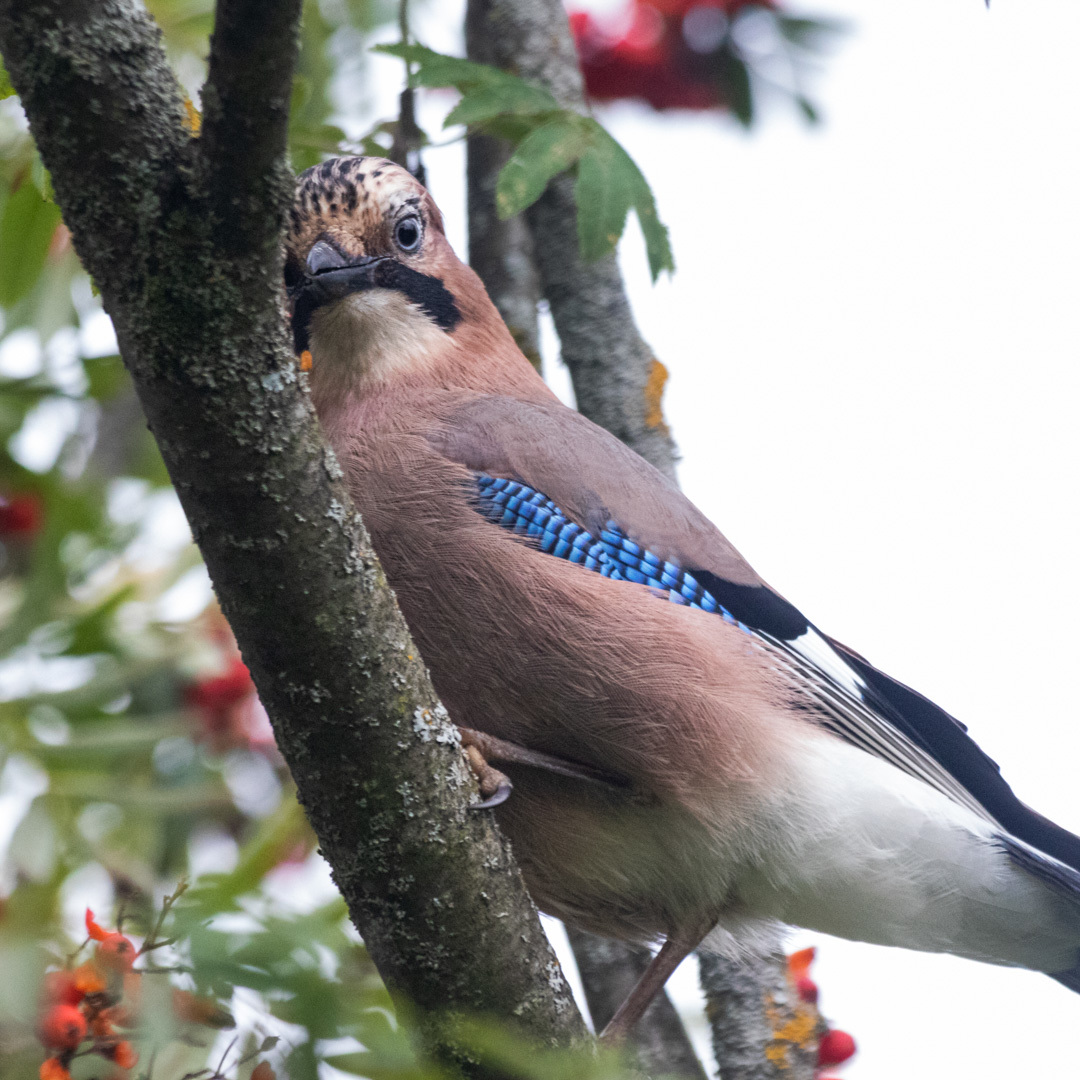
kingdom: Animalia
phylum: Chordata
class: Aves
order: Passeriformes
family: Corvidae
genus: Garrulus
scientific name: Garrulus glandarius
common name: Eurasian jay
